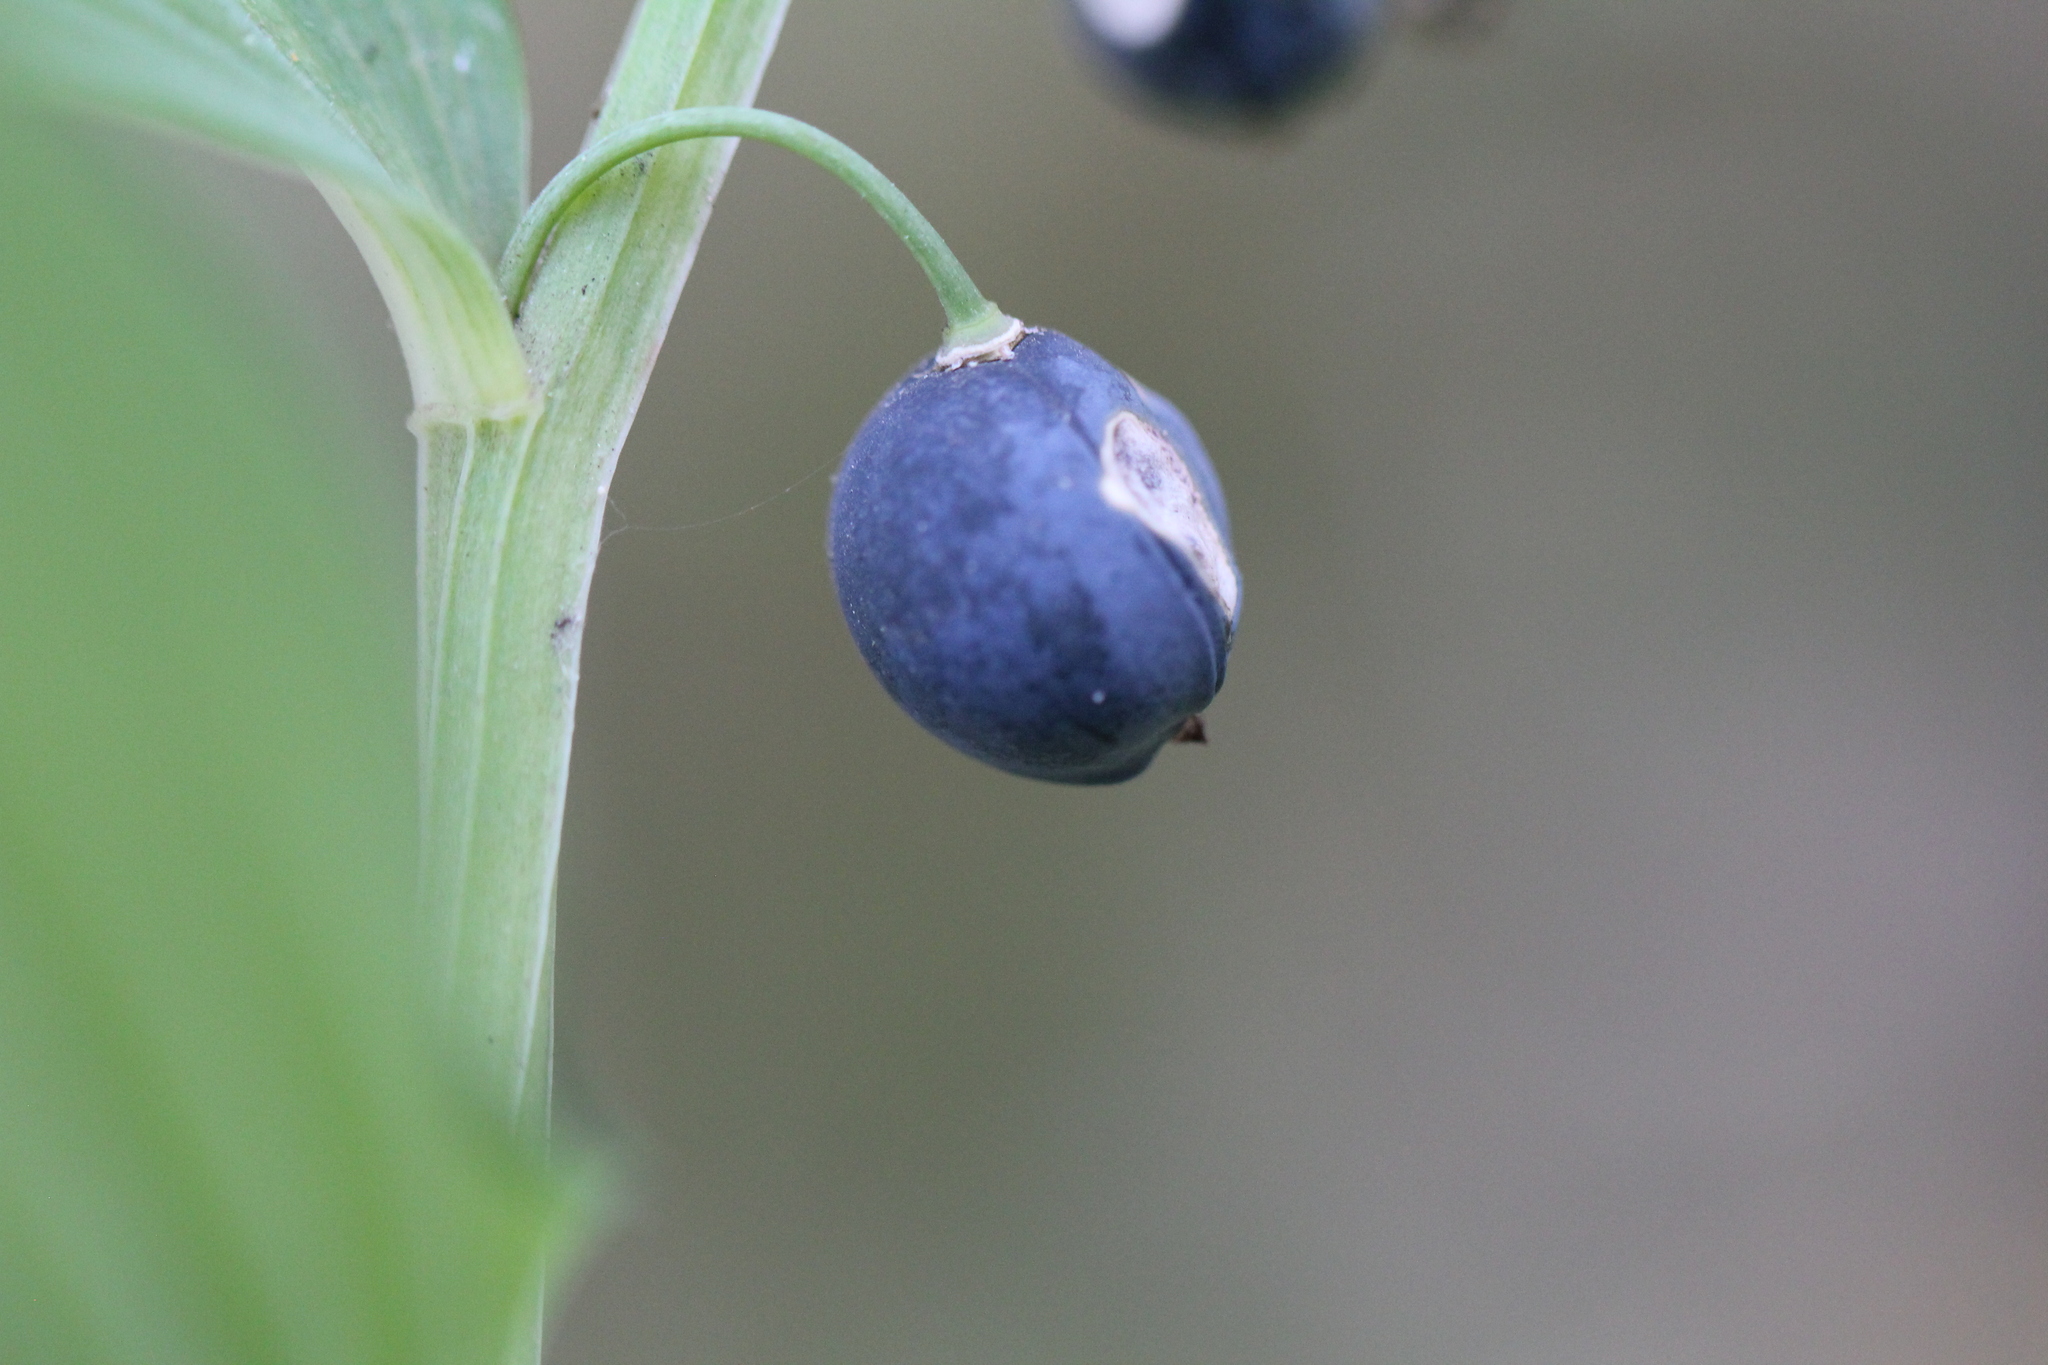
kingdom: Plantae
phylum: Tracheophyta
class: Liliopsida
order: Asparagales
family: Asparagaceae
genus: Polygonatum
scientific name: Polygonatum odoratum
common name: Angular solomon's-seal
